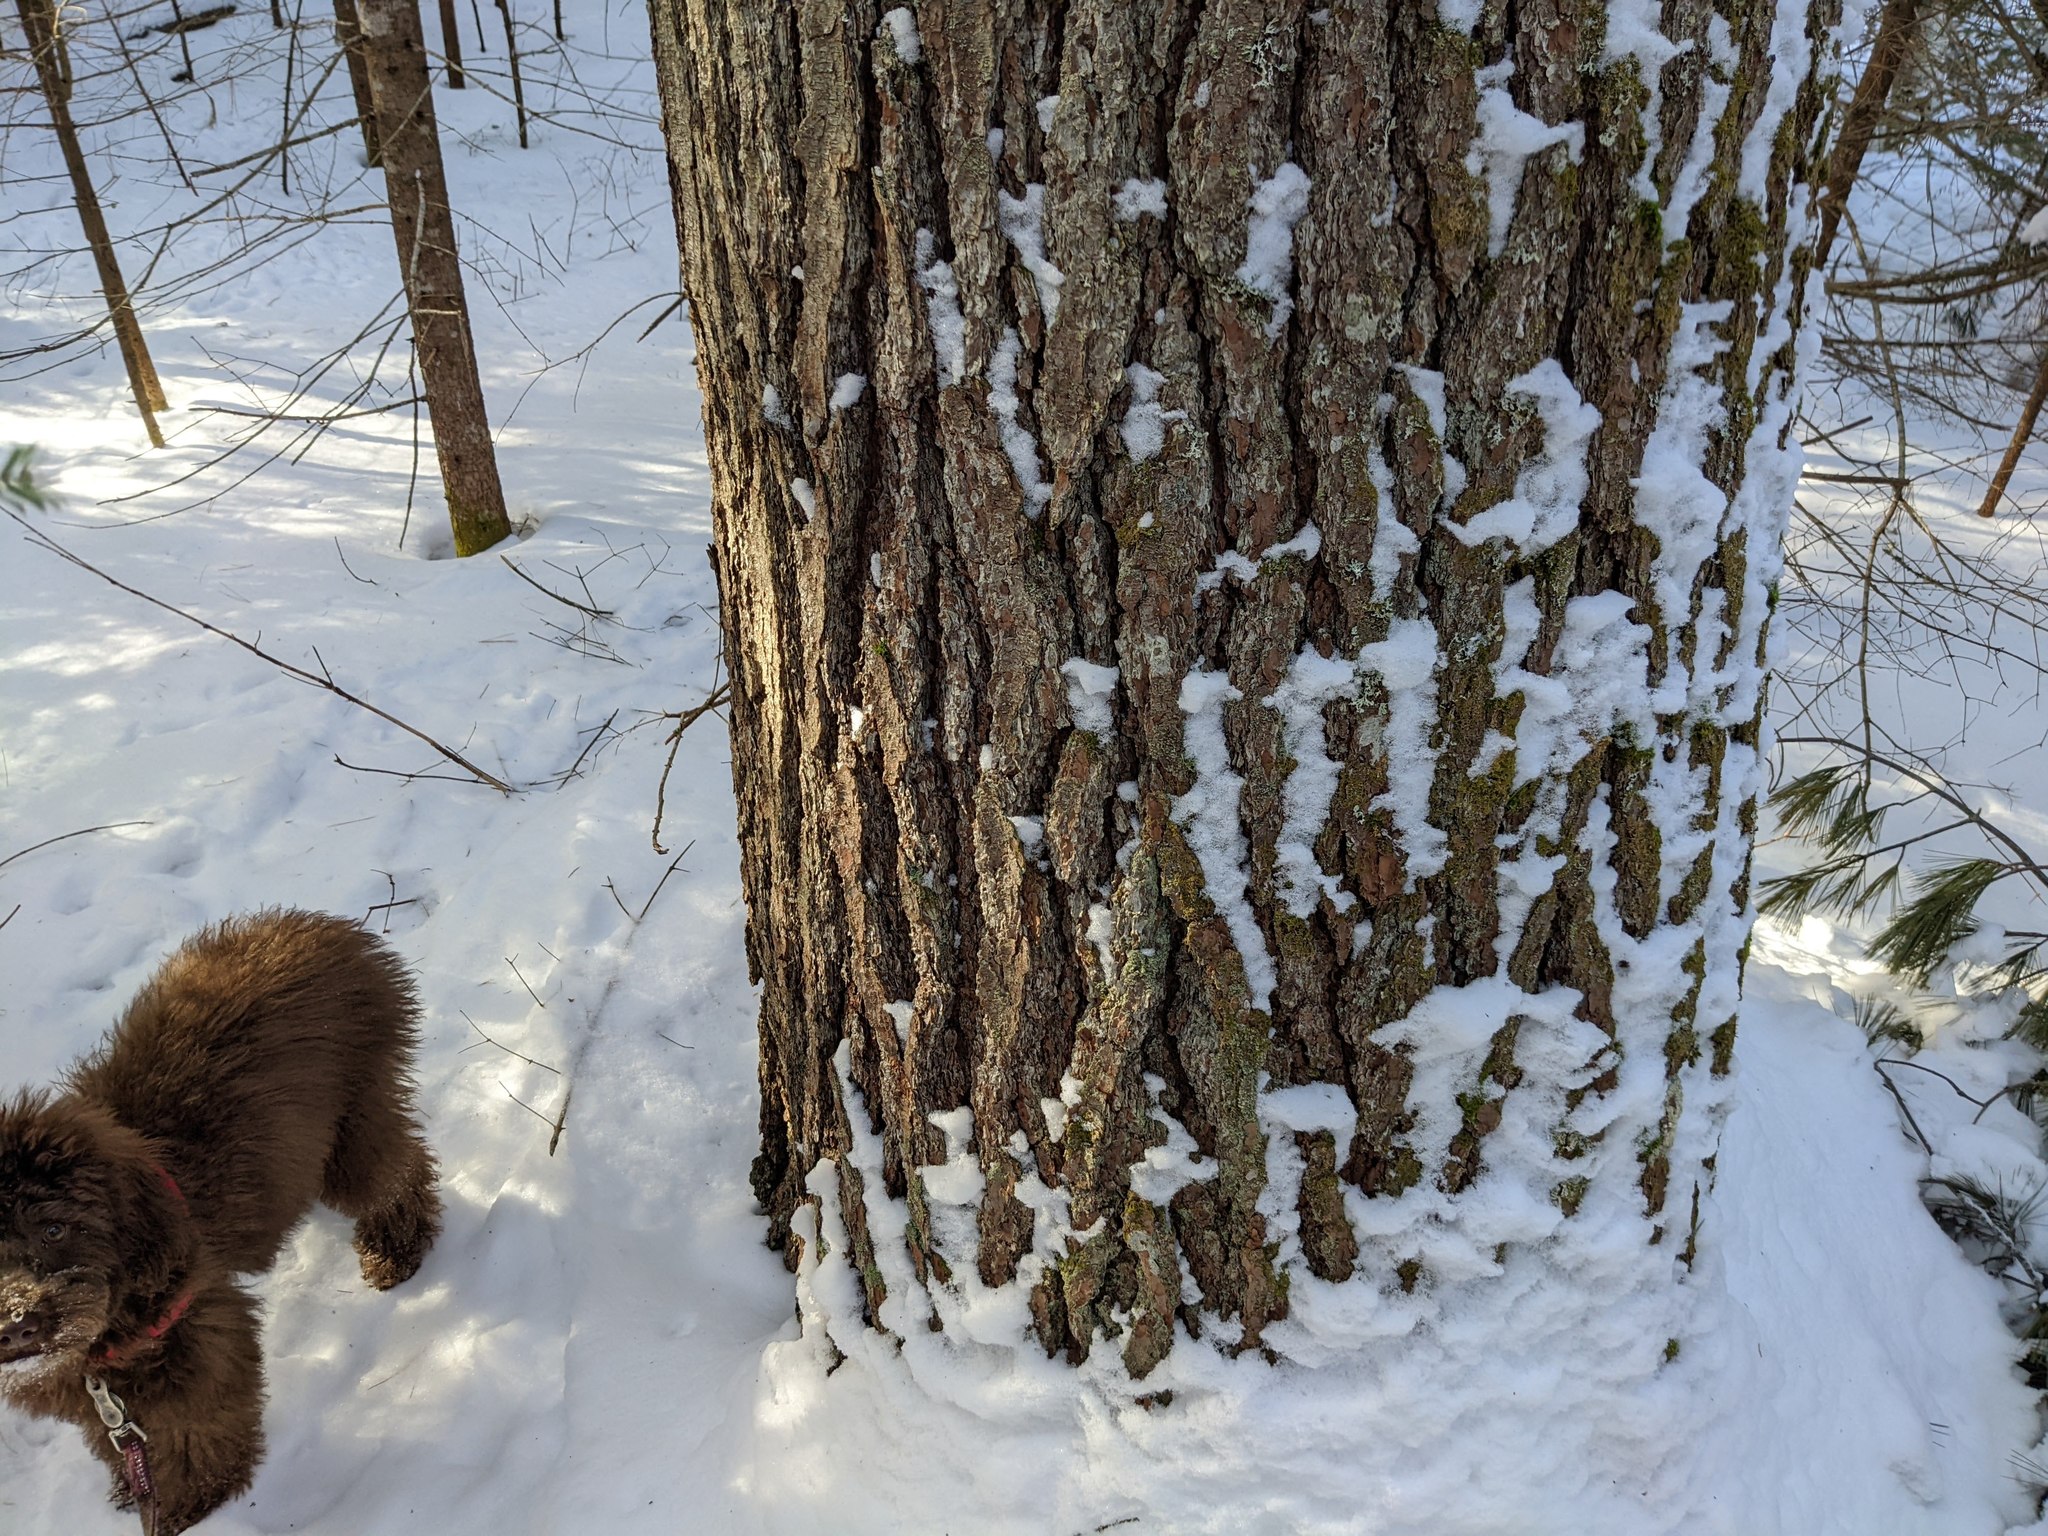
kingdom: Plantae
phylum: Tracheophyta
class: Pinopsida
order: Pinales
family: Pinaceae
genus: Pinus
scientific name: Pinus strobus
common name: Weymouth pine
